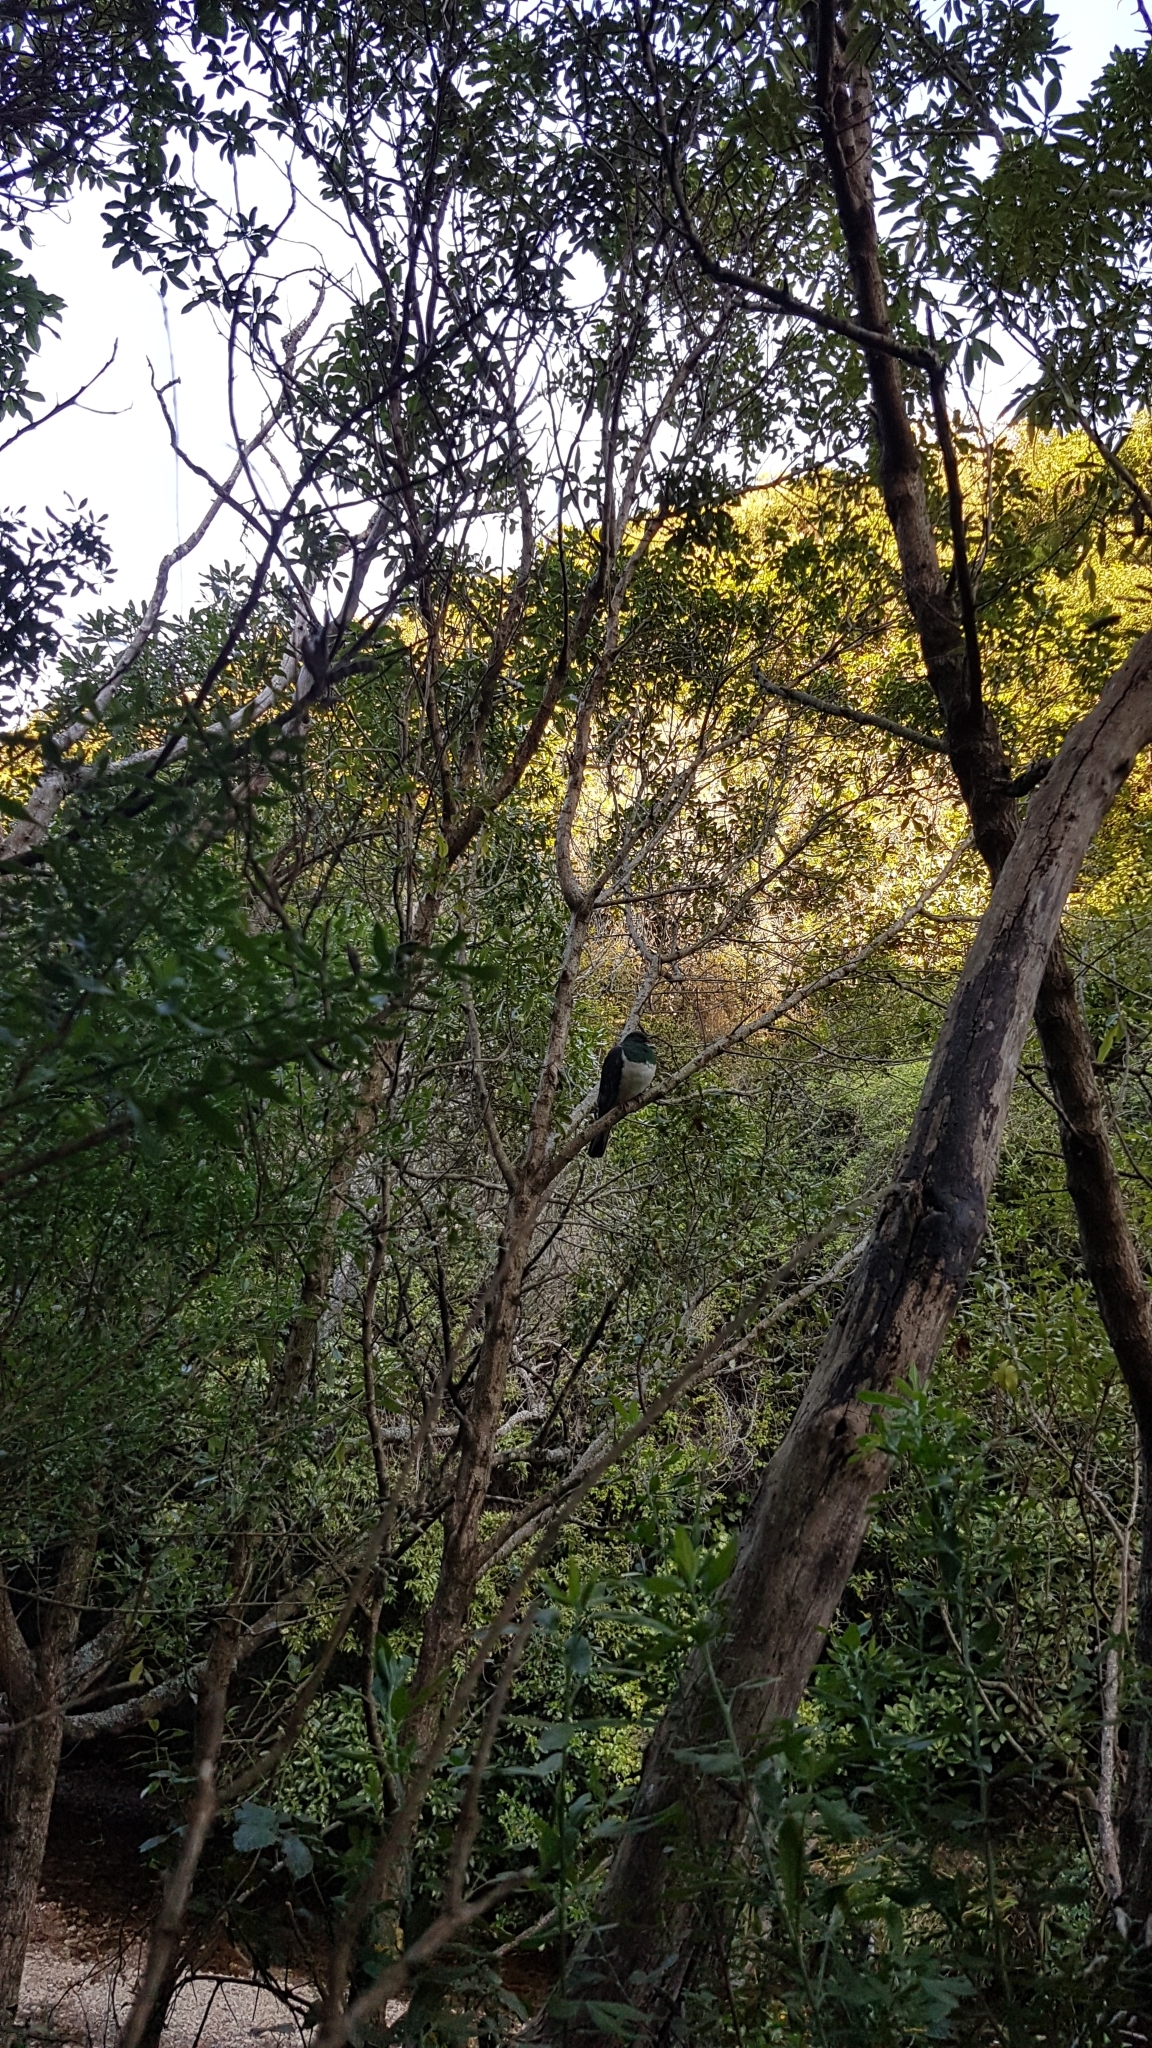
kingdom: Animalia
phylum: Chordata
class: Aves
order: Columbiformes
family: Columbidae
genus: Hemiphaga
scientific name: Hemiphaga novaeseelandiae
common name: New zealand pigeon
